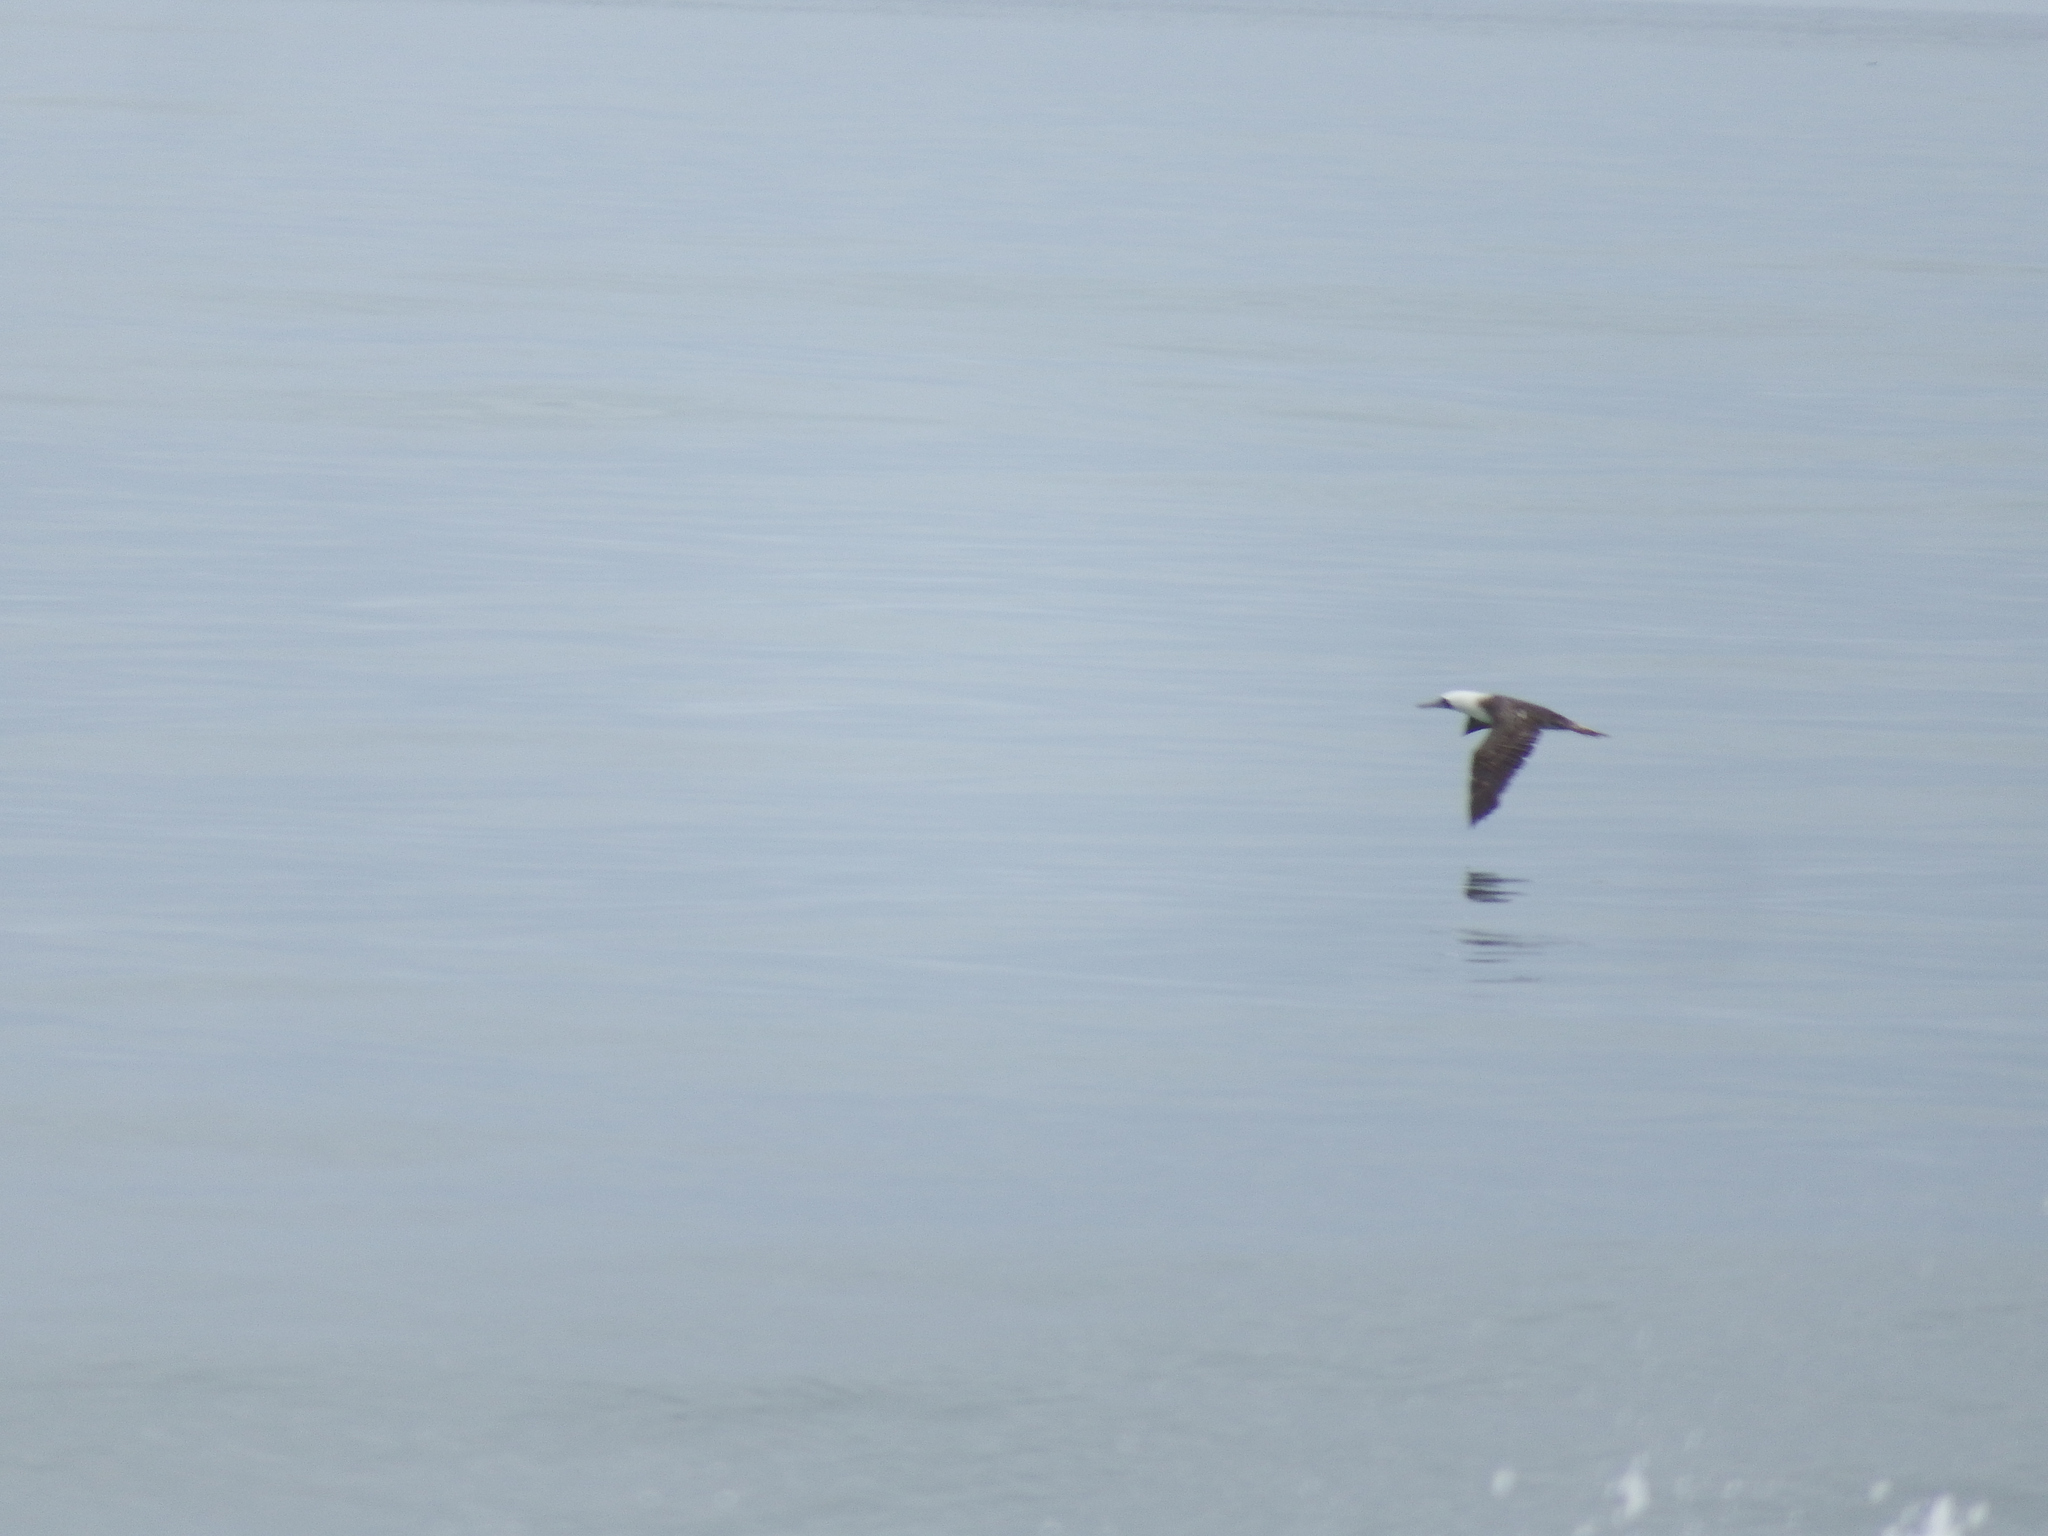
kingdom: Animalia
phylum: Chordata
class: Aves
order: Suliformes
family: Sulidae
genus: Sula
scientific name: Sula variegata
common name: Peruvian booby
